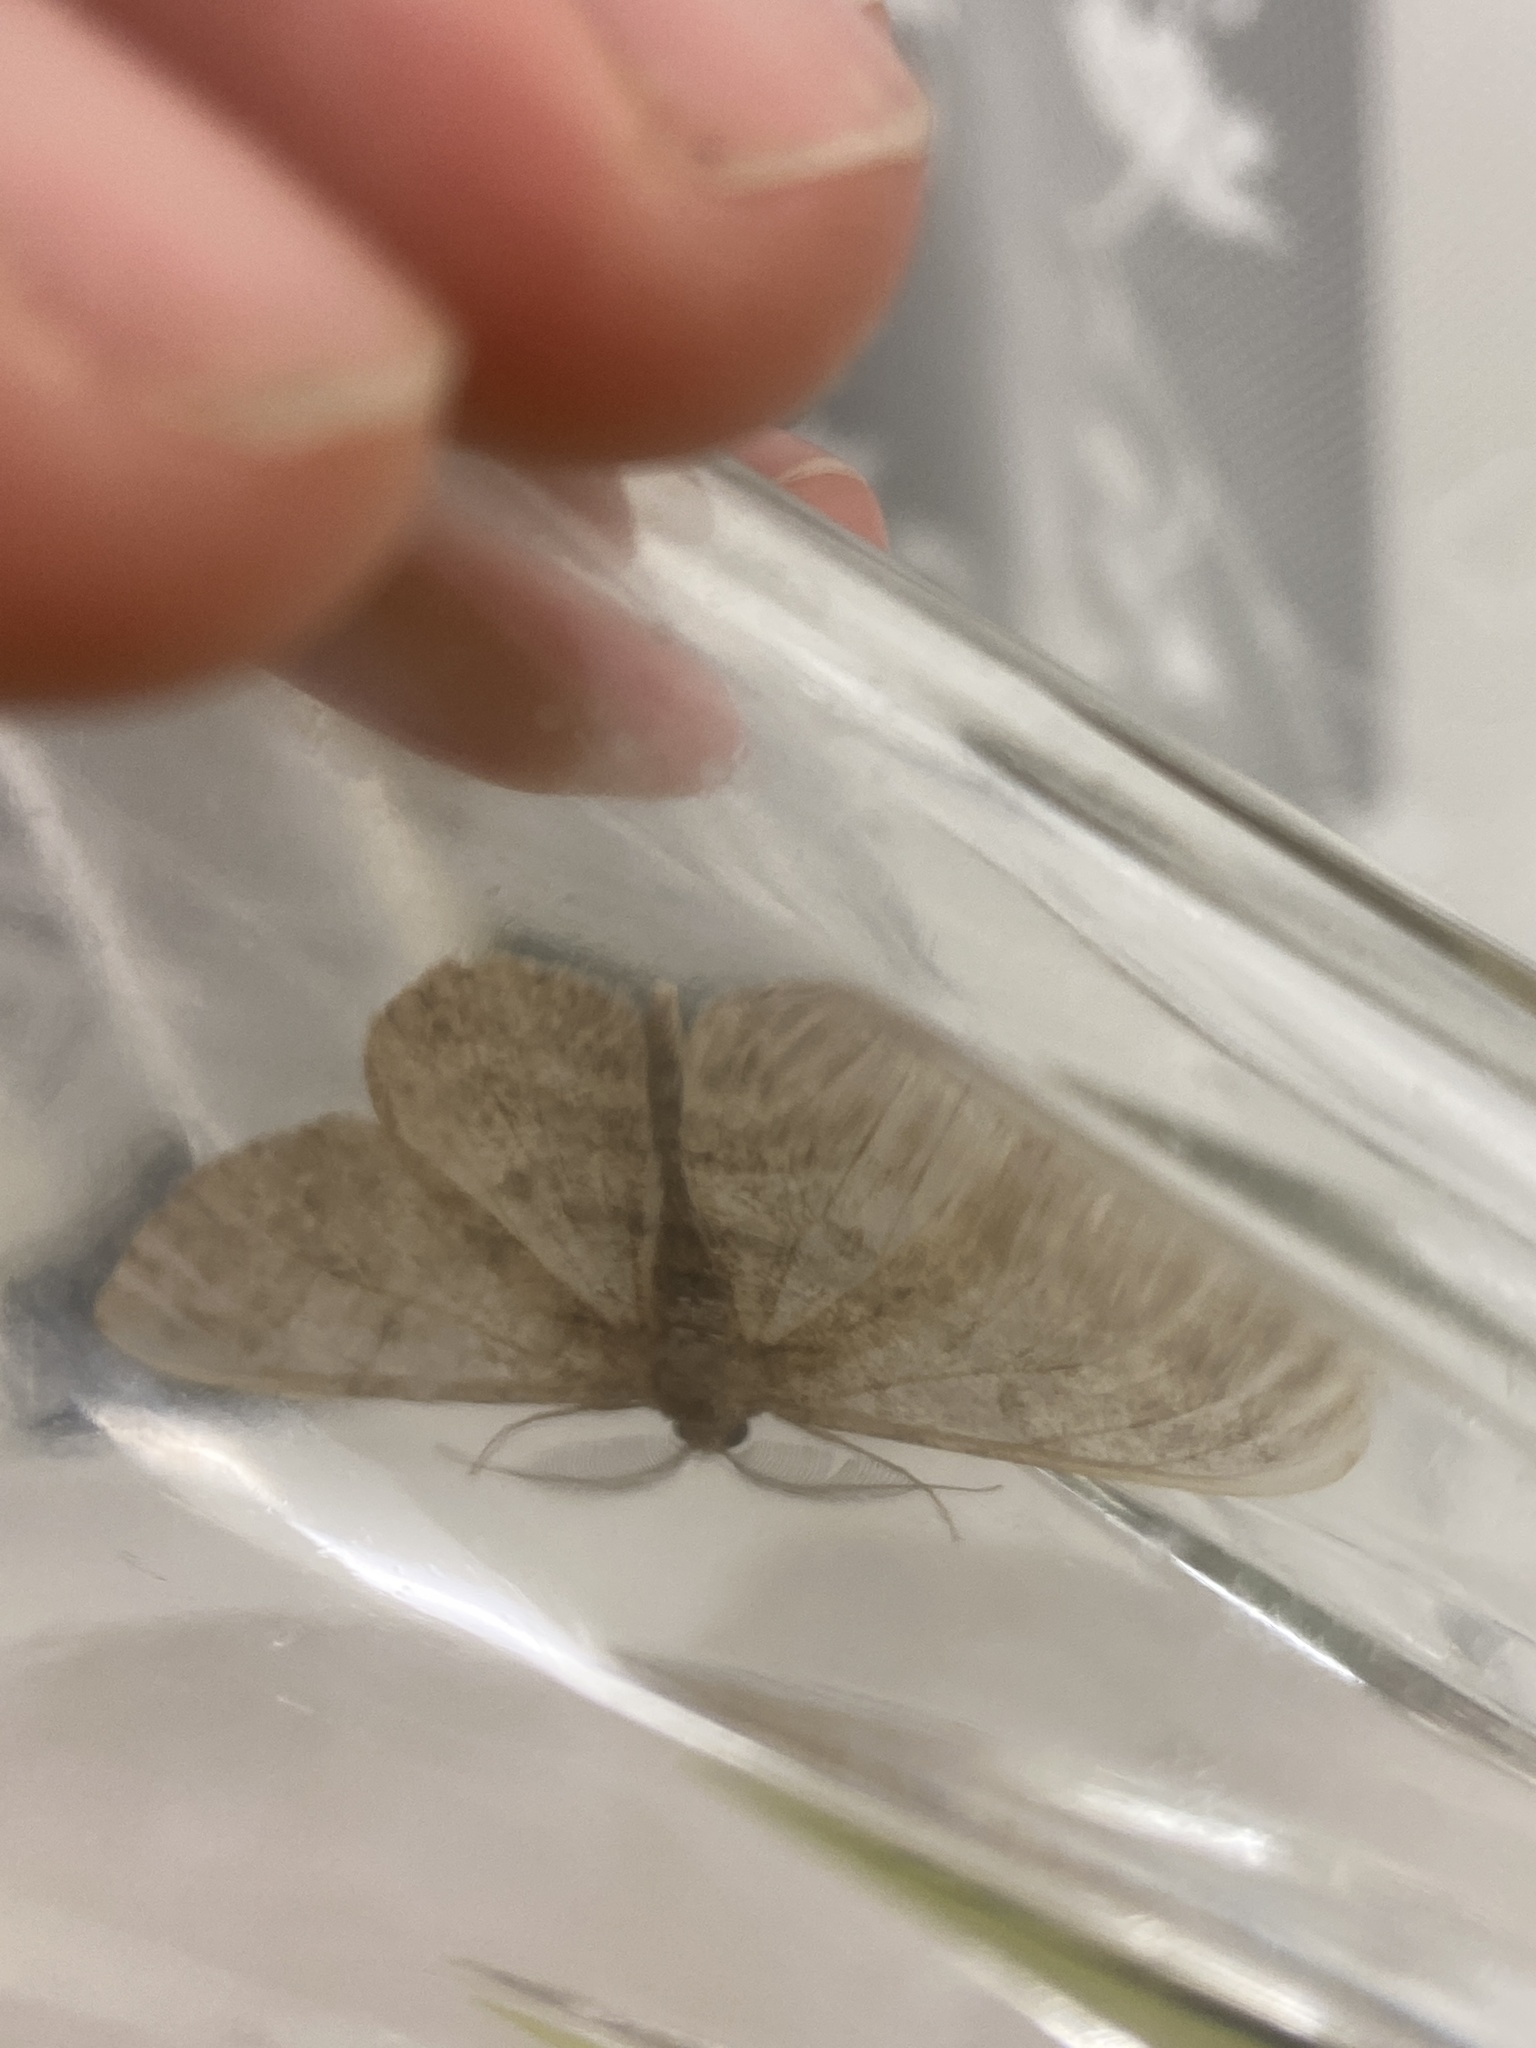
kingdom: Animalia
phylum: Arthropoda
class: Insecta
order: Lepidoptera
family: Geometridae
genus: Hypomecis
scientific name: Hypomecis punctinalis
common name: Pale oak beauty
